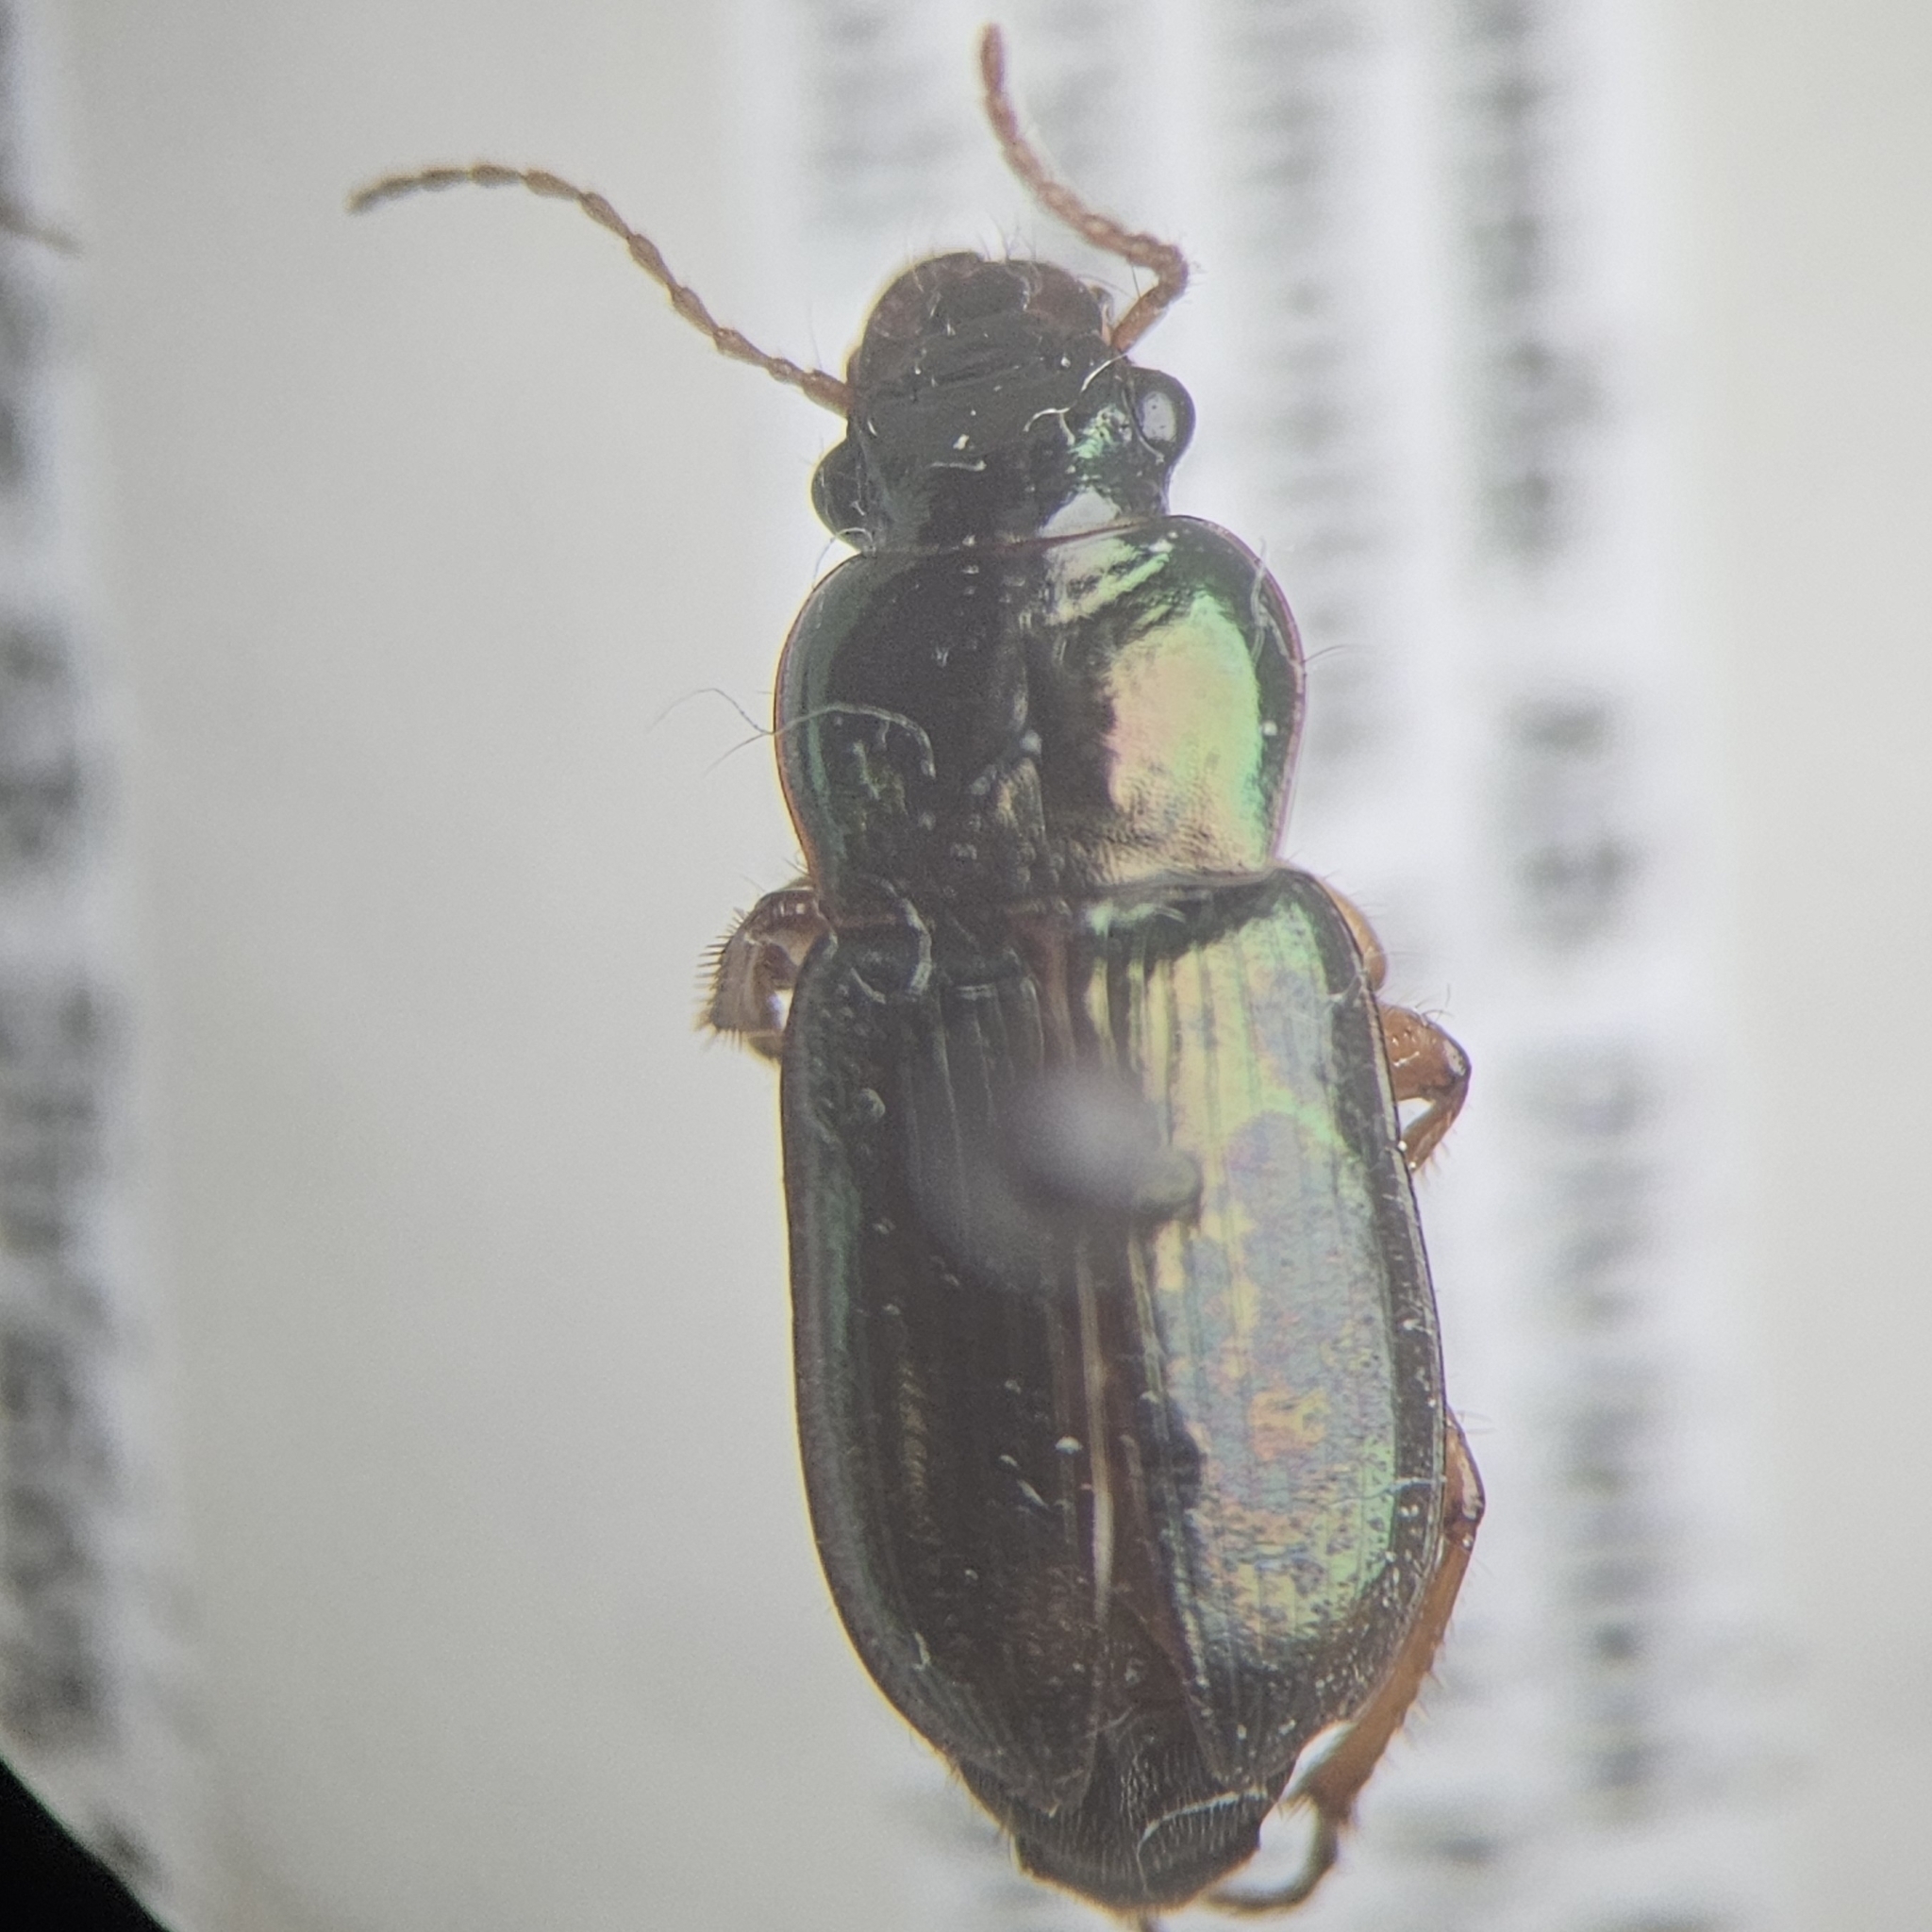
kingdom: Animalia
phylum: Arthropoda
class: Insecta
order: Coleoptera
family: Carabidae
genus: Harpalus
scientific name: Harpalus affinis
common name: Polychrome harp ground beetle
